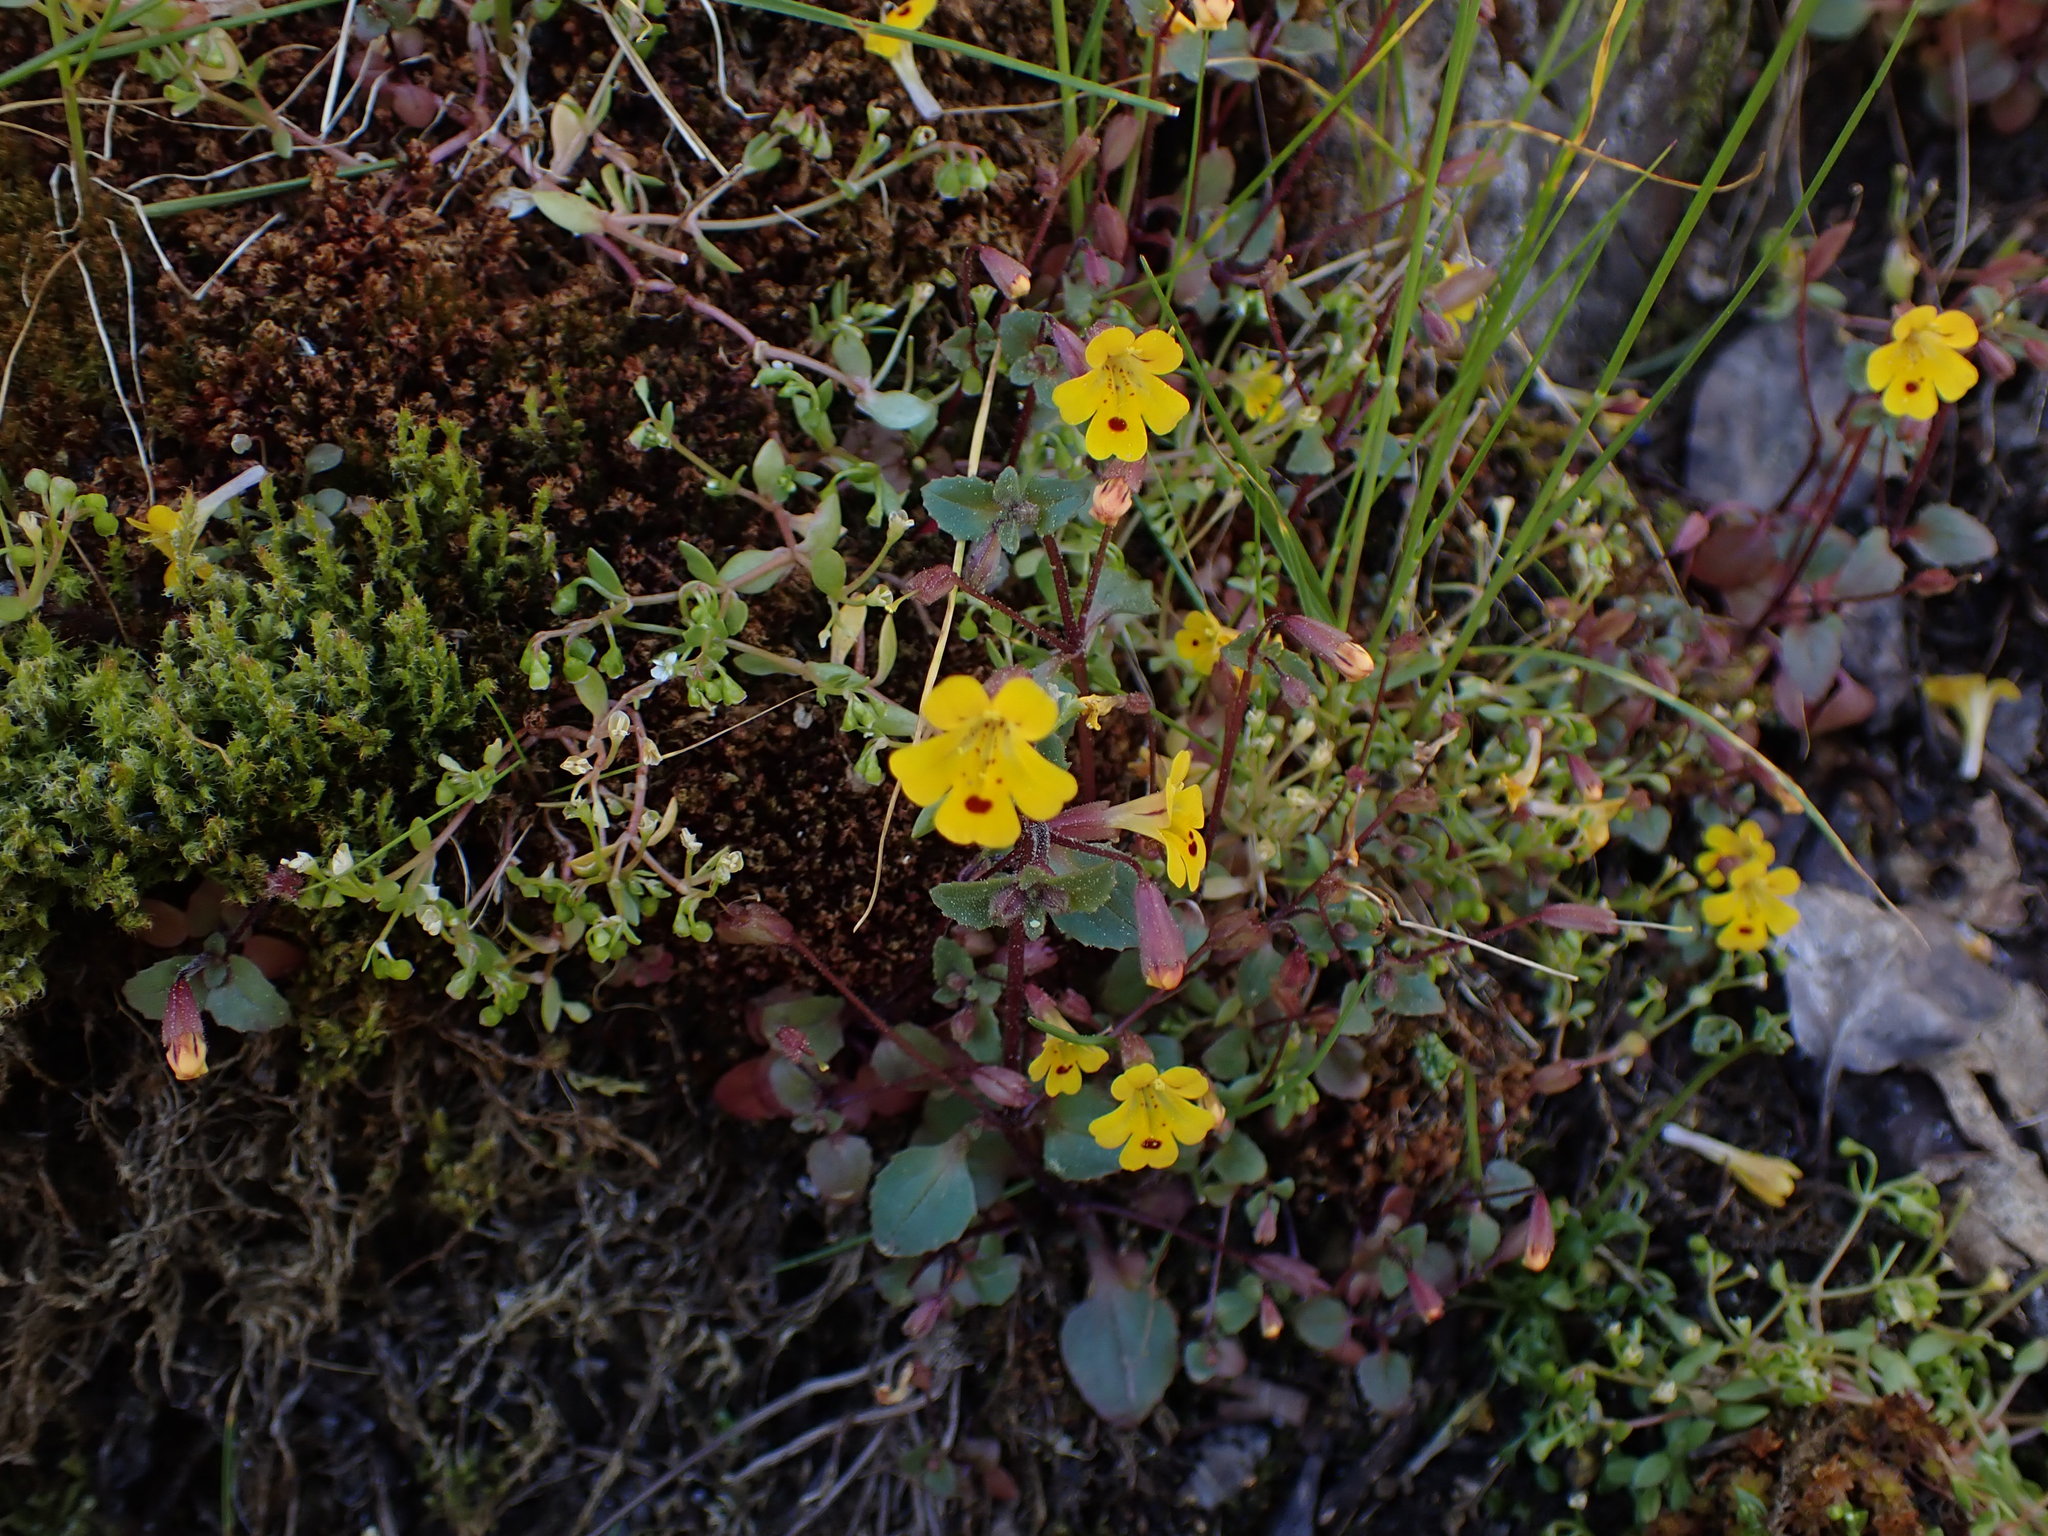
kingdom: Plantae
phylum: Tracheophyta
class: Magnoliopsida
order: Lamiales
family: Phrymaceae
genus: Erythranthe
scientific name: Erythranthe alsinoides
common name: Chickweed monkeyflower
